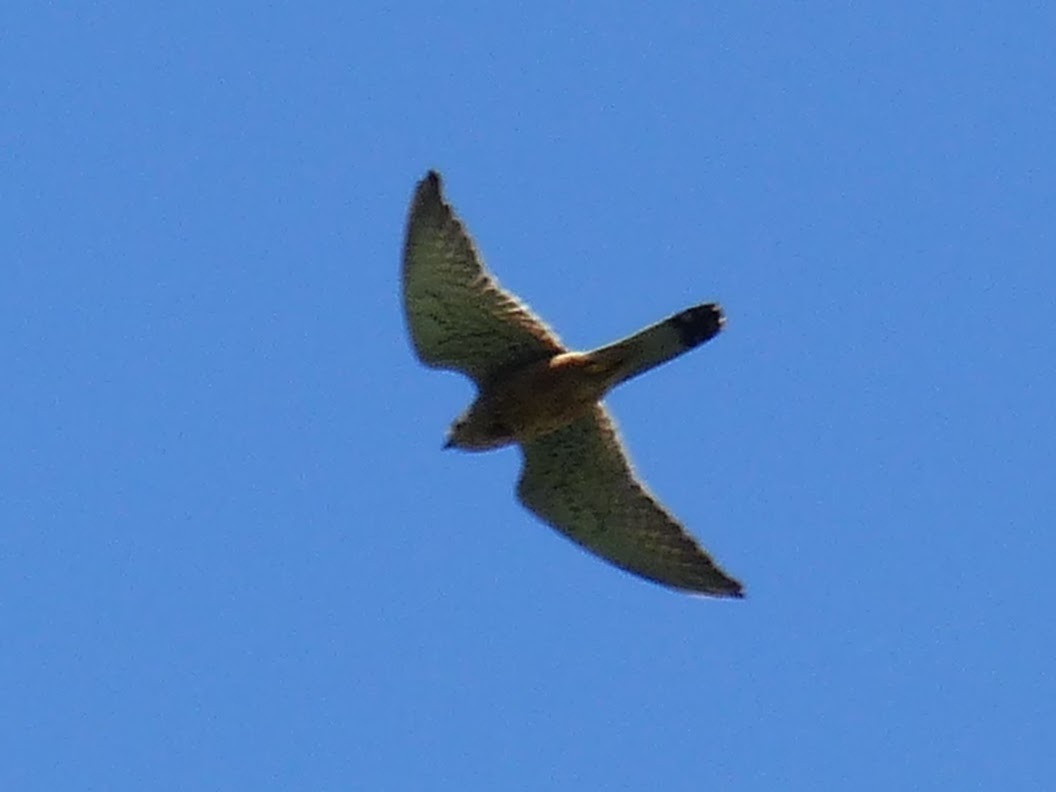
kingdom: Animalia
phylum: Chordata
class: Aves
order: Falconiformes
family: Falconidae
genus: Falco
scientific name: Falco tinnunculus
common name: Common kestrel
